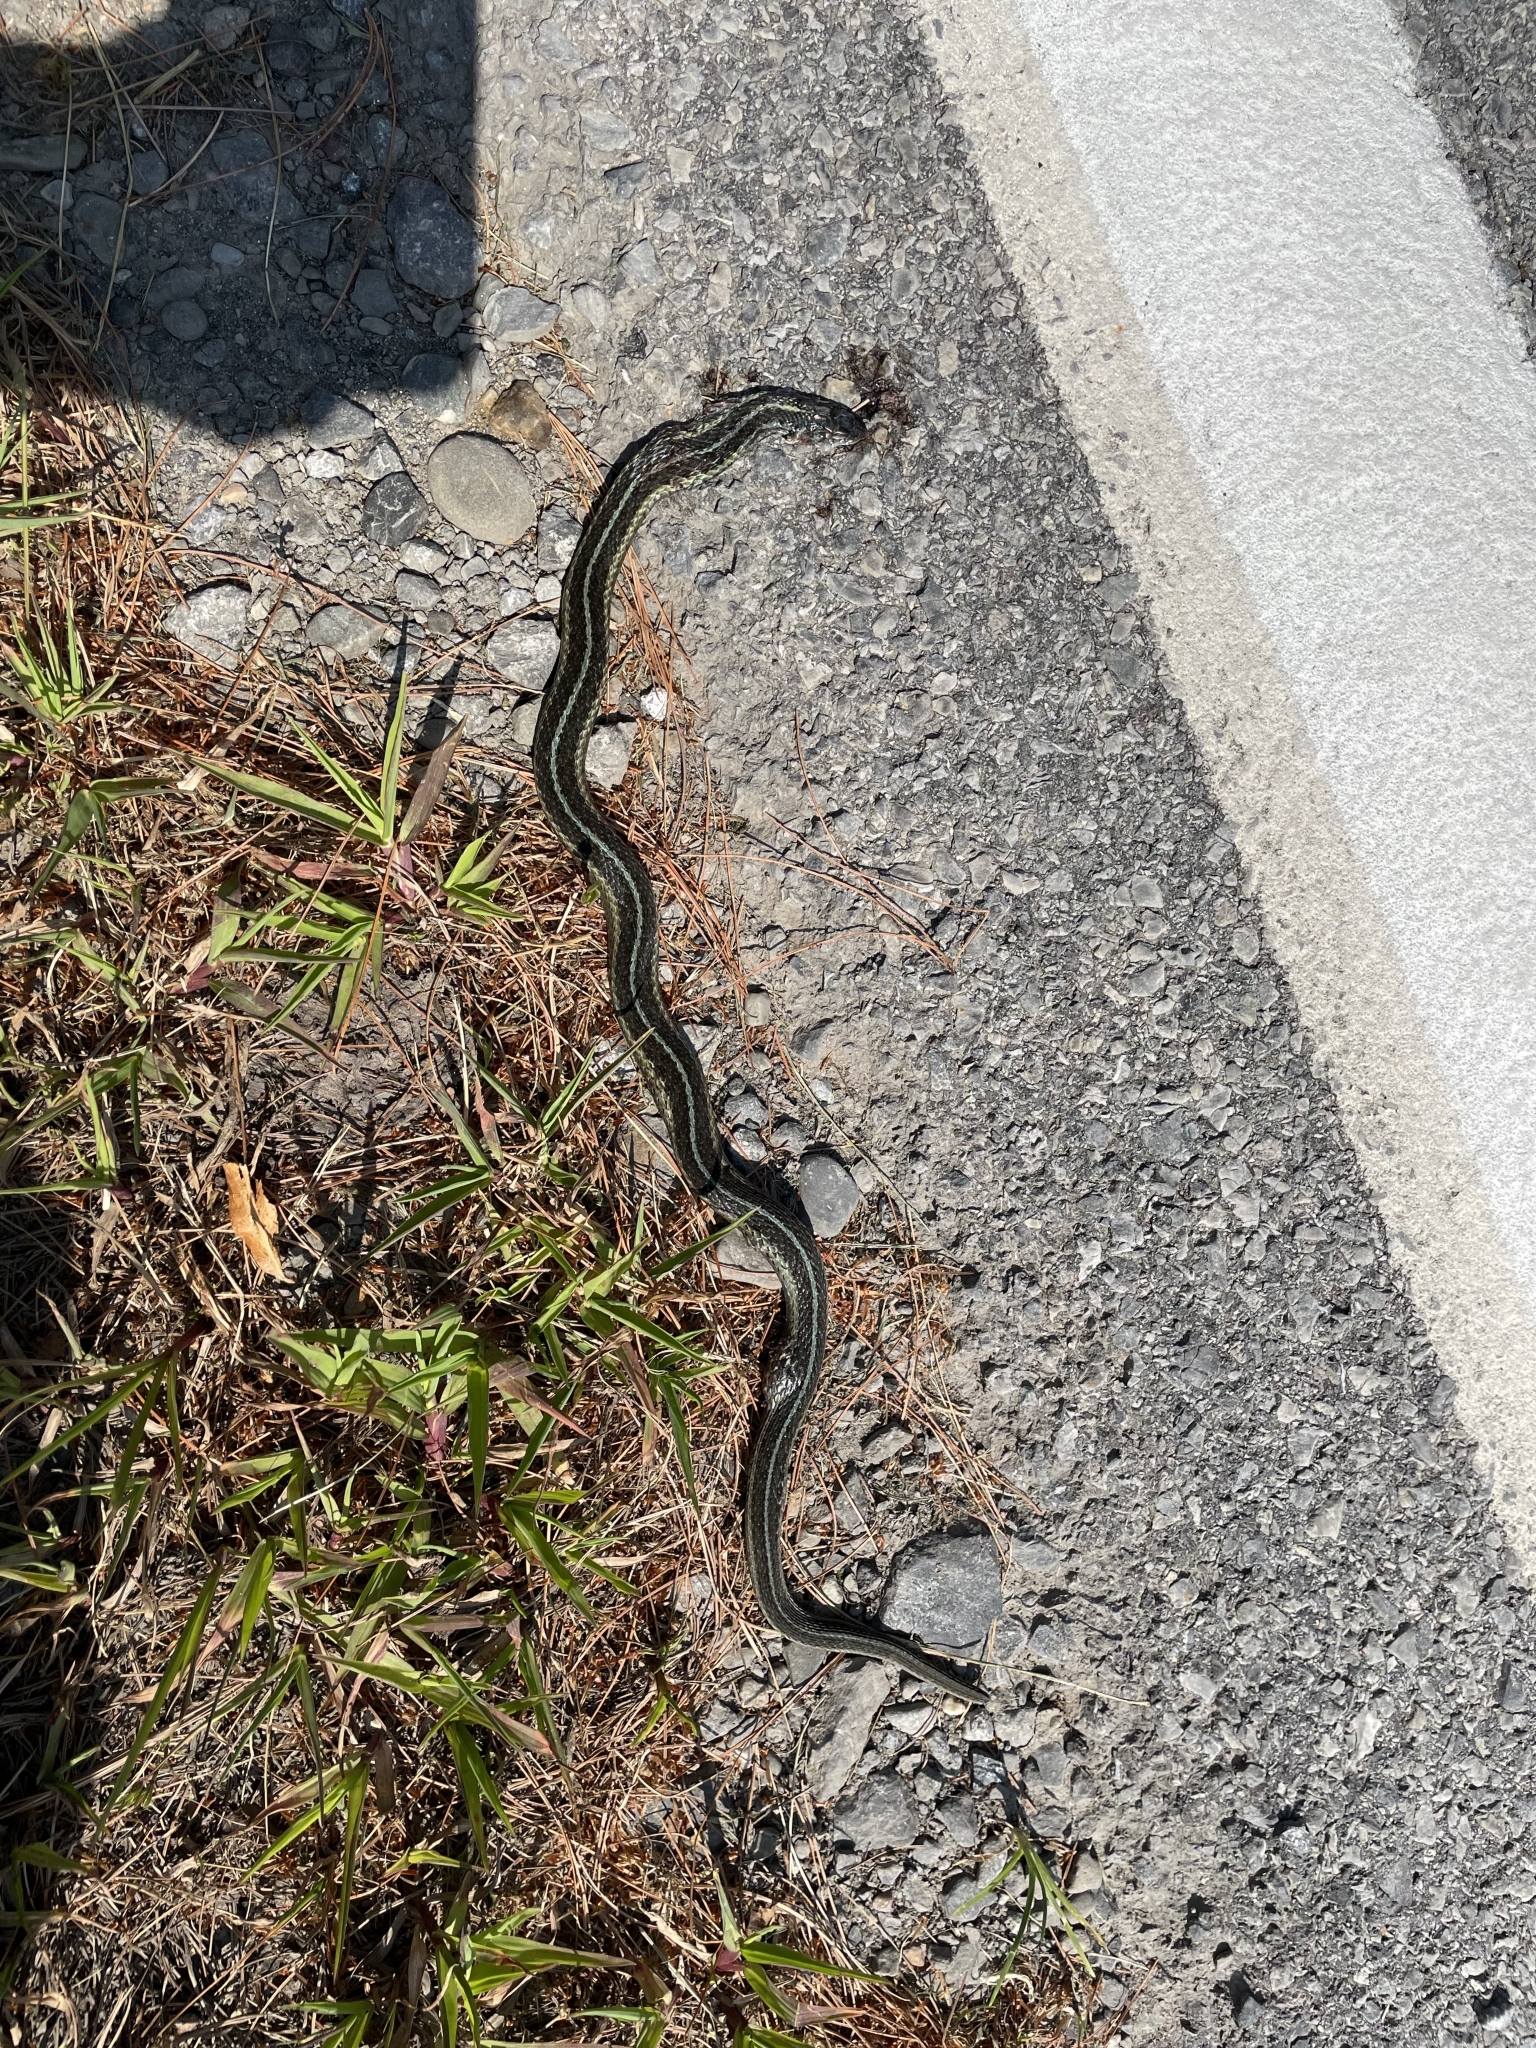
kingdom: Animalia
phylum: Chordata
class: Squamata
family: Colubridae
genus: Thamnophis
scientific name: Thamnophis sirtalis
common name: Common garter snake
